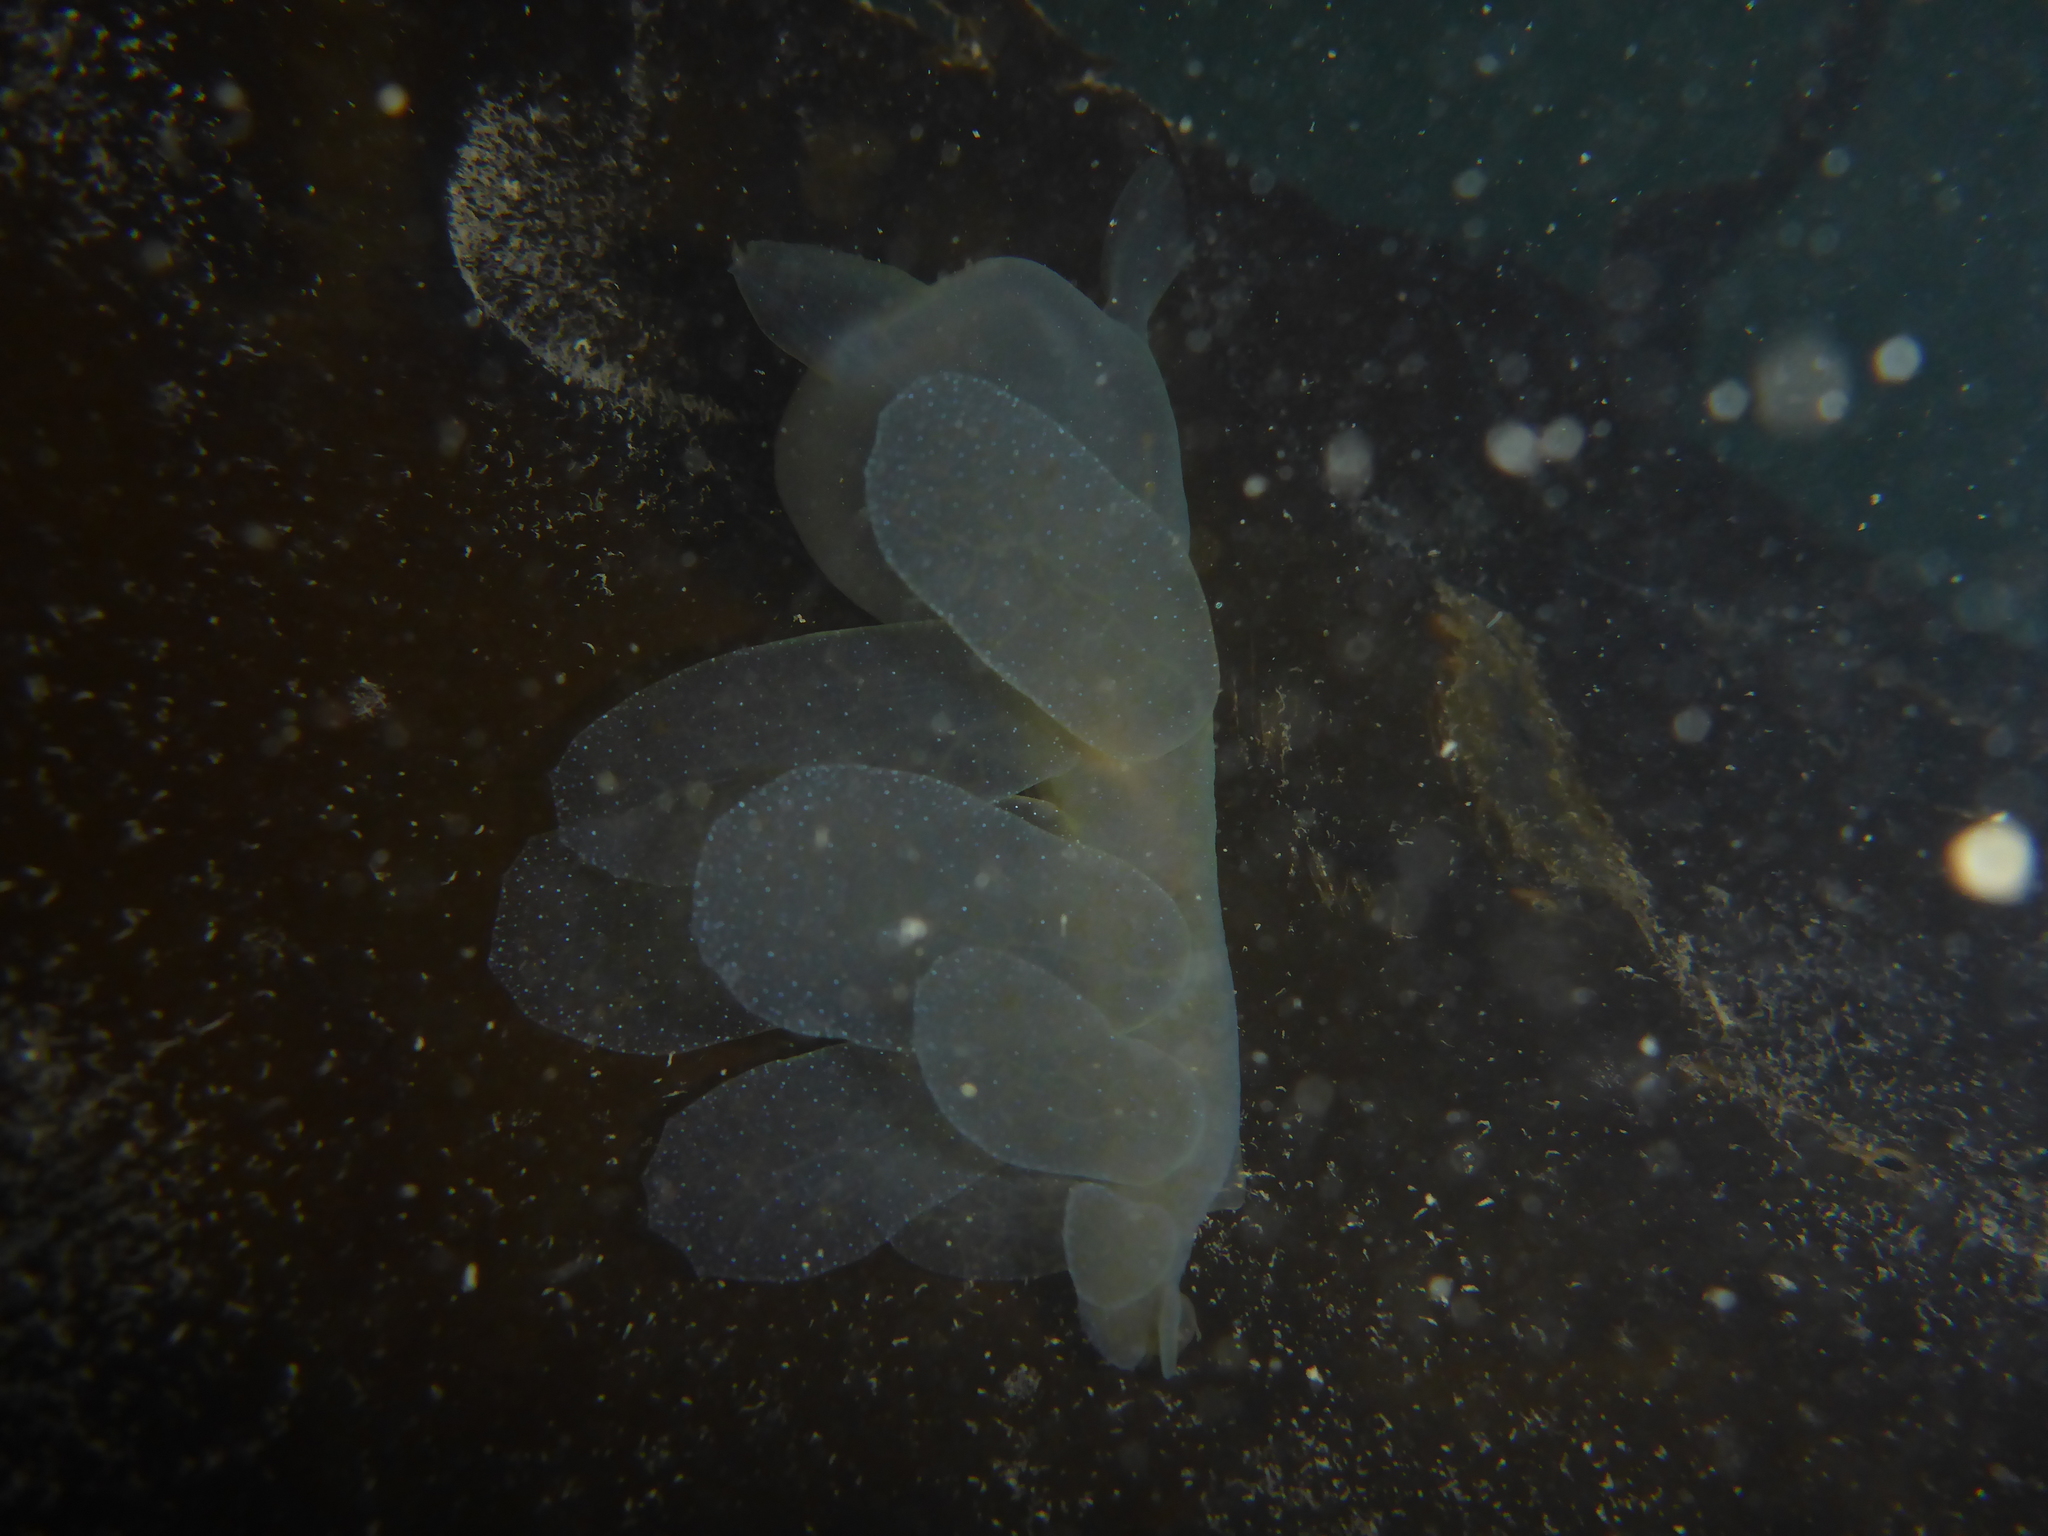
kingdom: Animalia
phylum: Mollusca
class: Gastropoda
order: Nudibranchia
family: Tethydidae
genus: Melibe
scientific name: Melibe leonina
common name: Lion nudibranch
